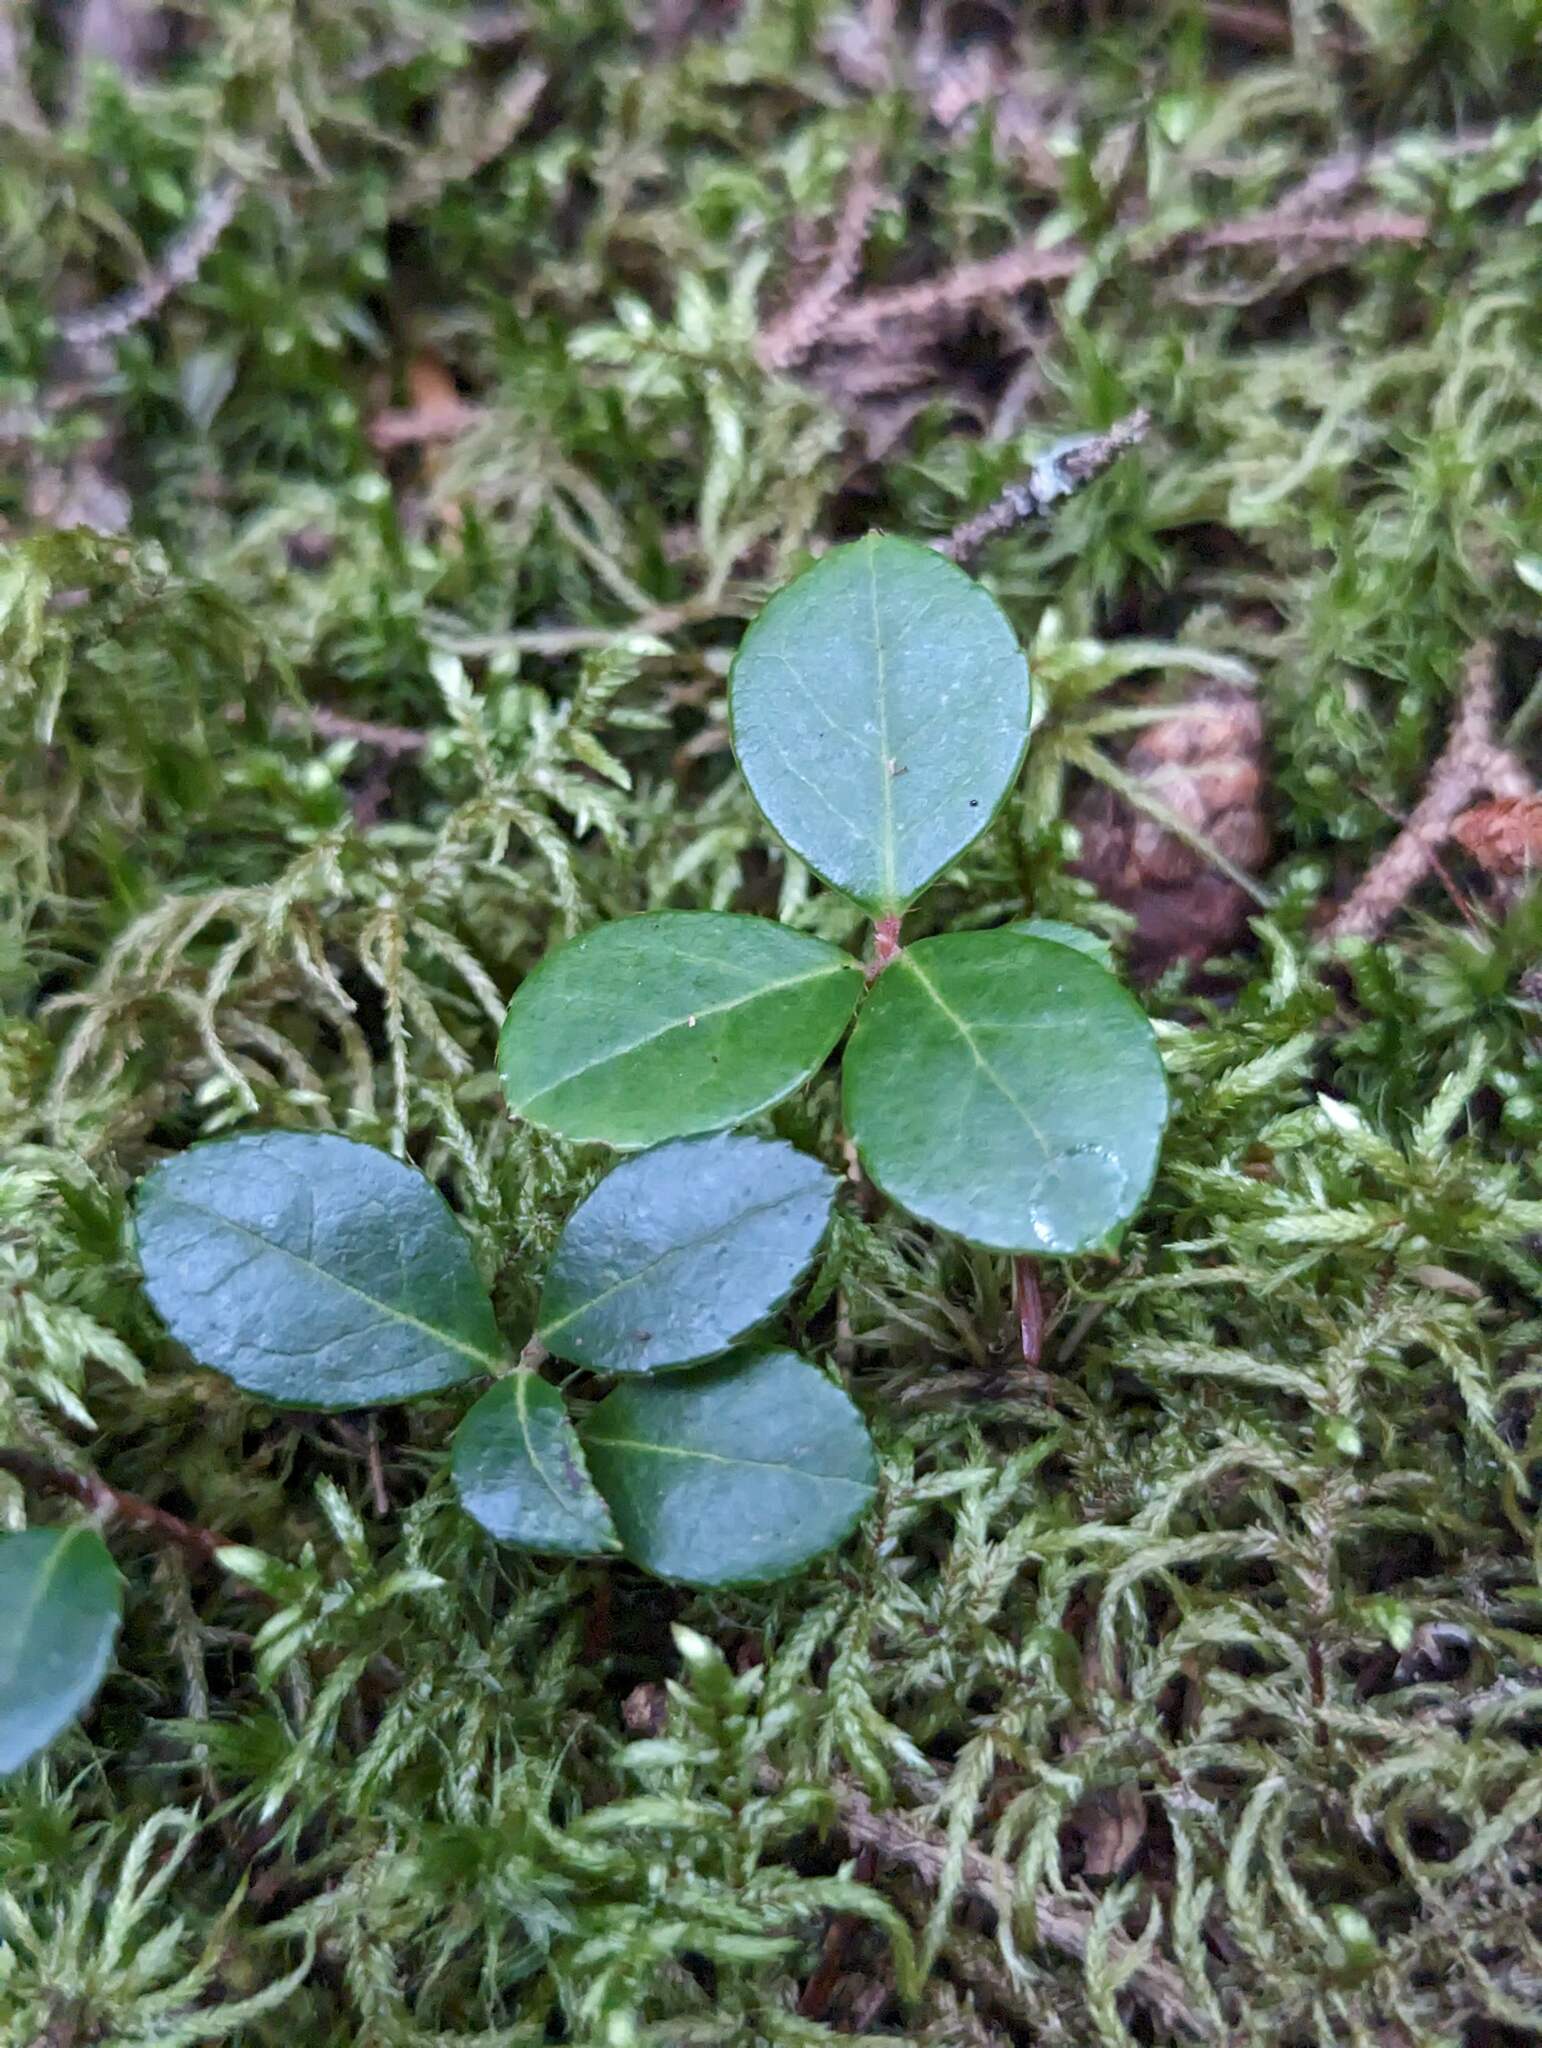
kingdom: Plantae
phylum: Tracheophyta
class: Magnoliopsida
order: Ericales
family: Ericaceae
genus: Gaultheria
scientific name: Gaultheria procumbens
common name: Checkerberry
